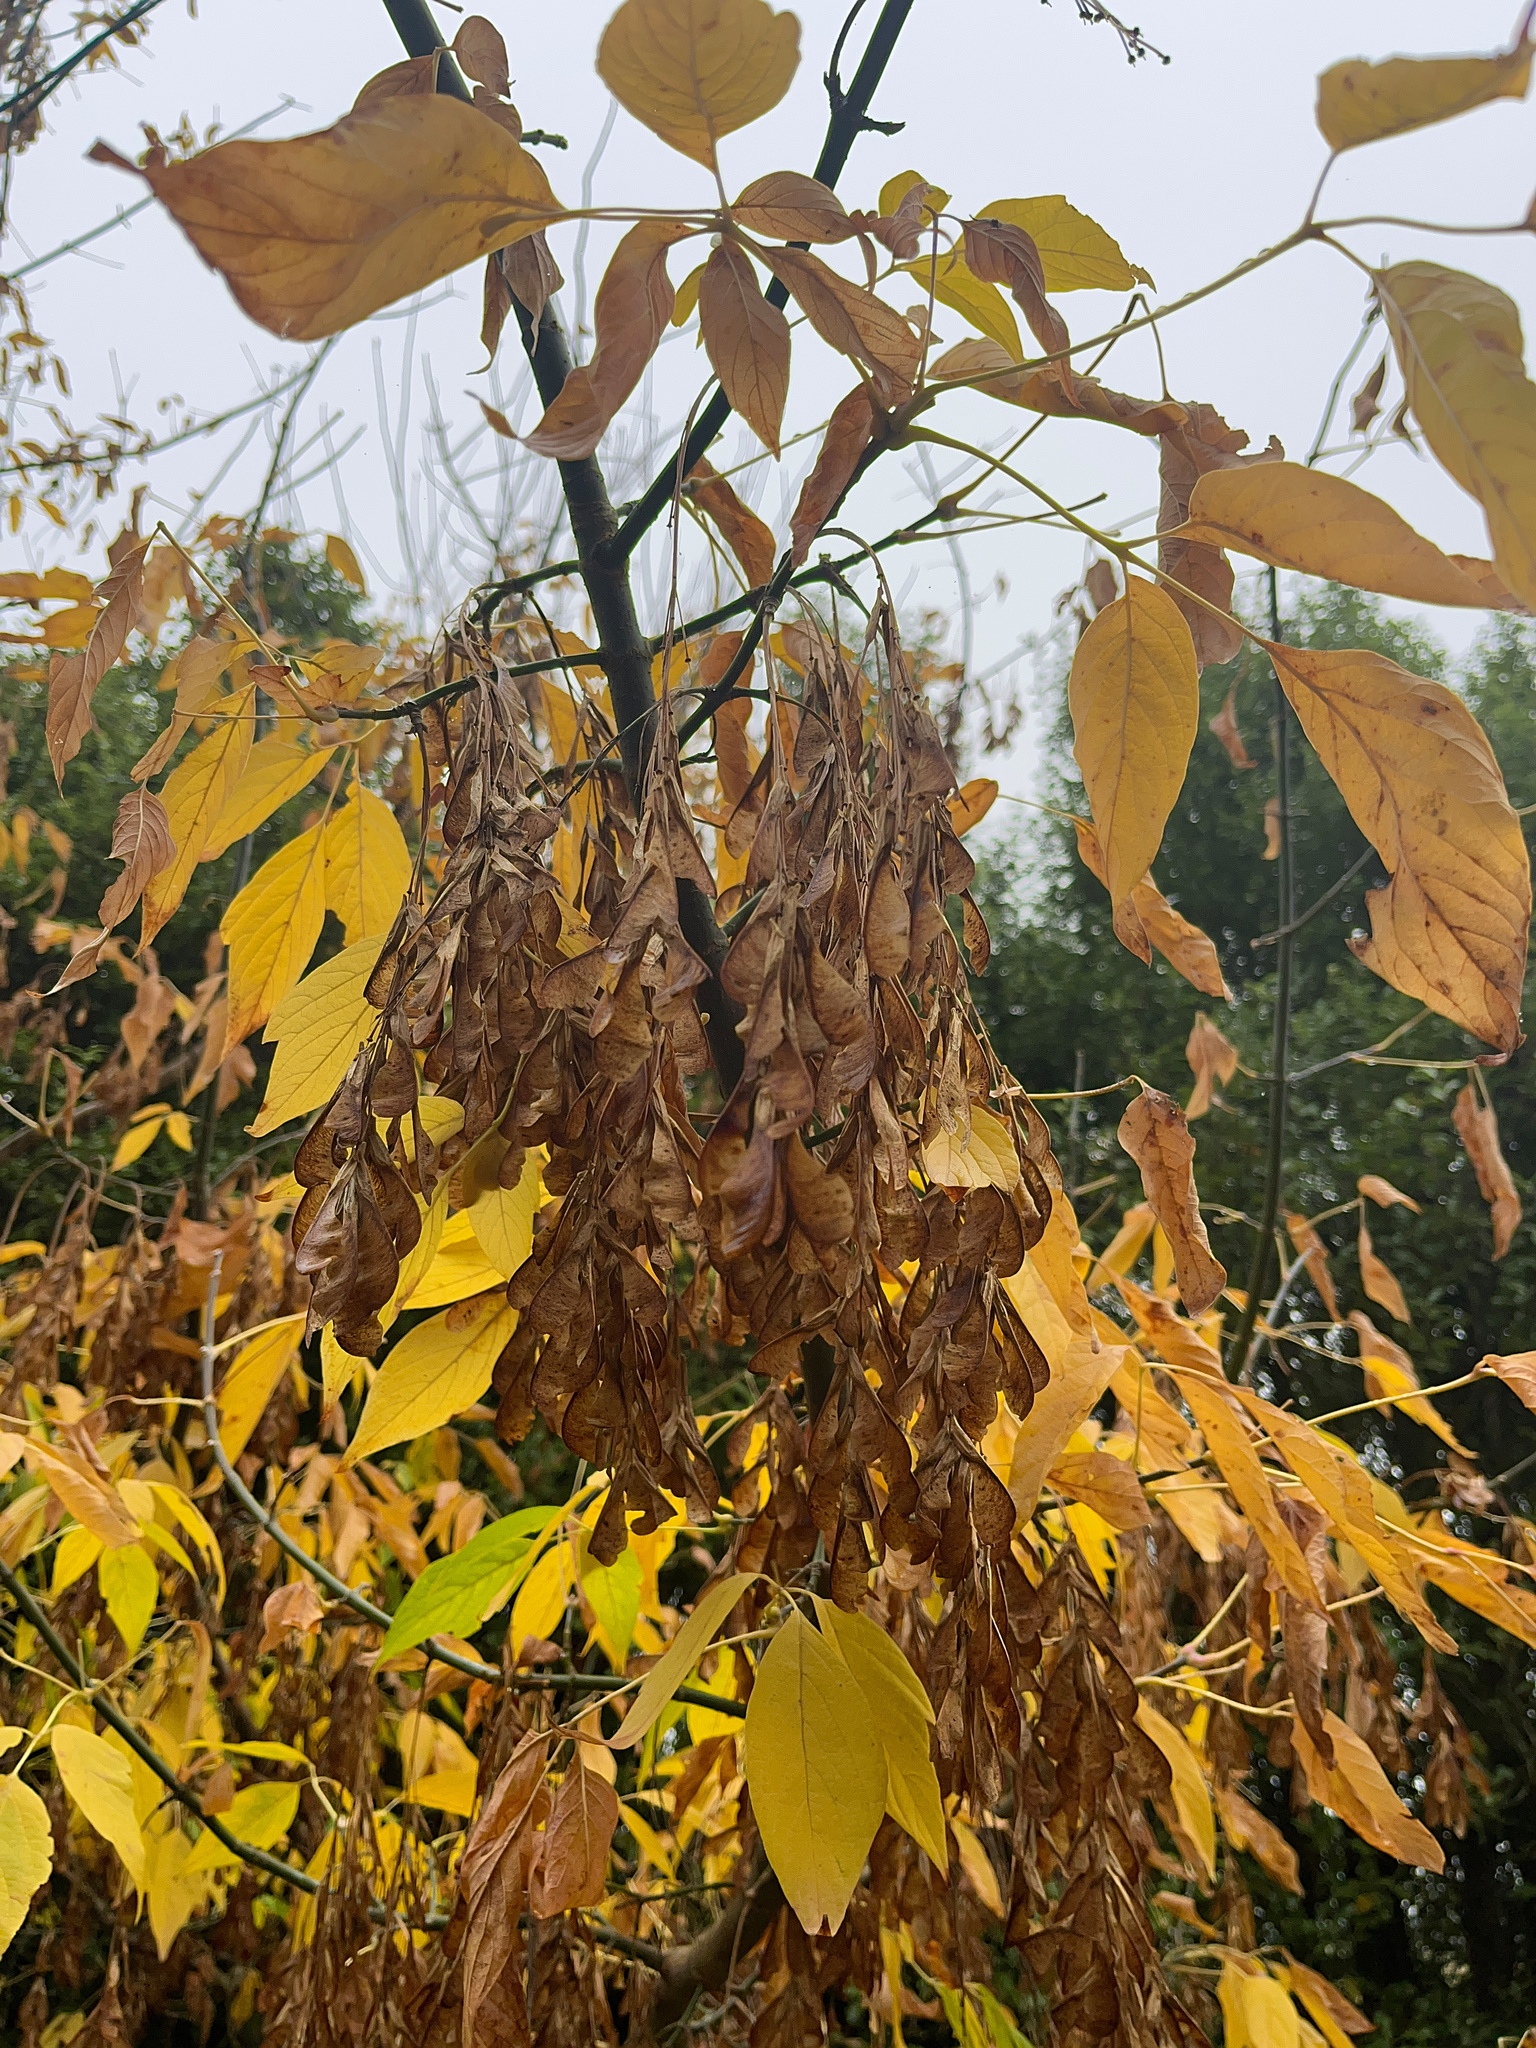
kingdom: Plantae
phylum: Tracheophyta
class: Magnoliopsida
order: Sapindales
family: Sapindaceae
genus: Acer
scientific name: Acer negundo
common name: Ashleaf maple
